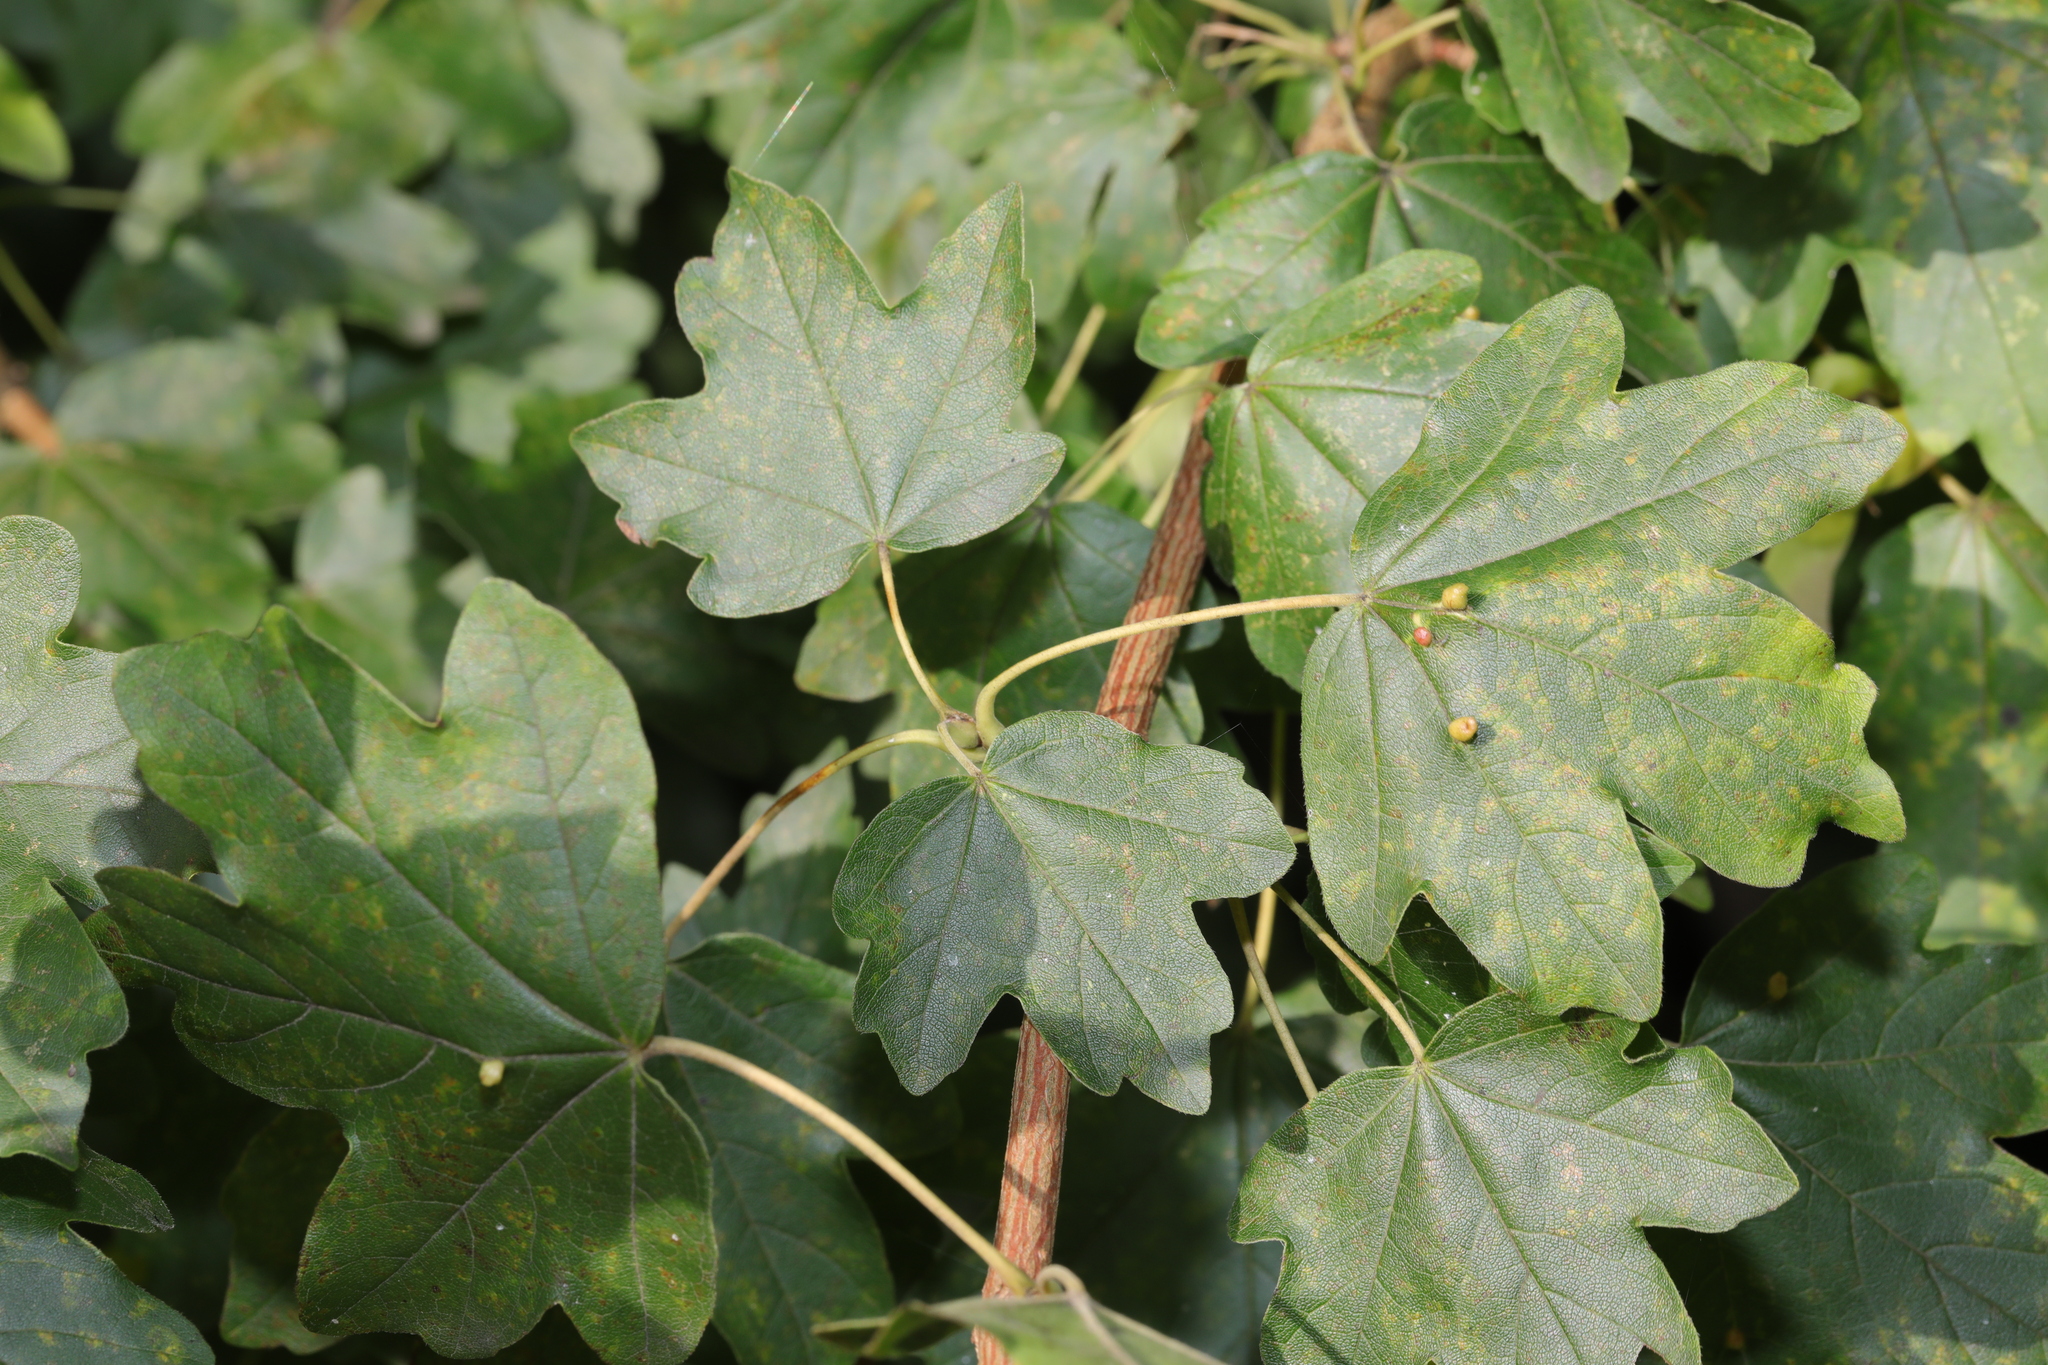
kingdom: Plantae
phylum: Tracheophyta
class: Magnoliopsida
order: Sapindales
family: Sapindaceae
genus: Acer
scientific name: Acer campestre
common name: Field maple
